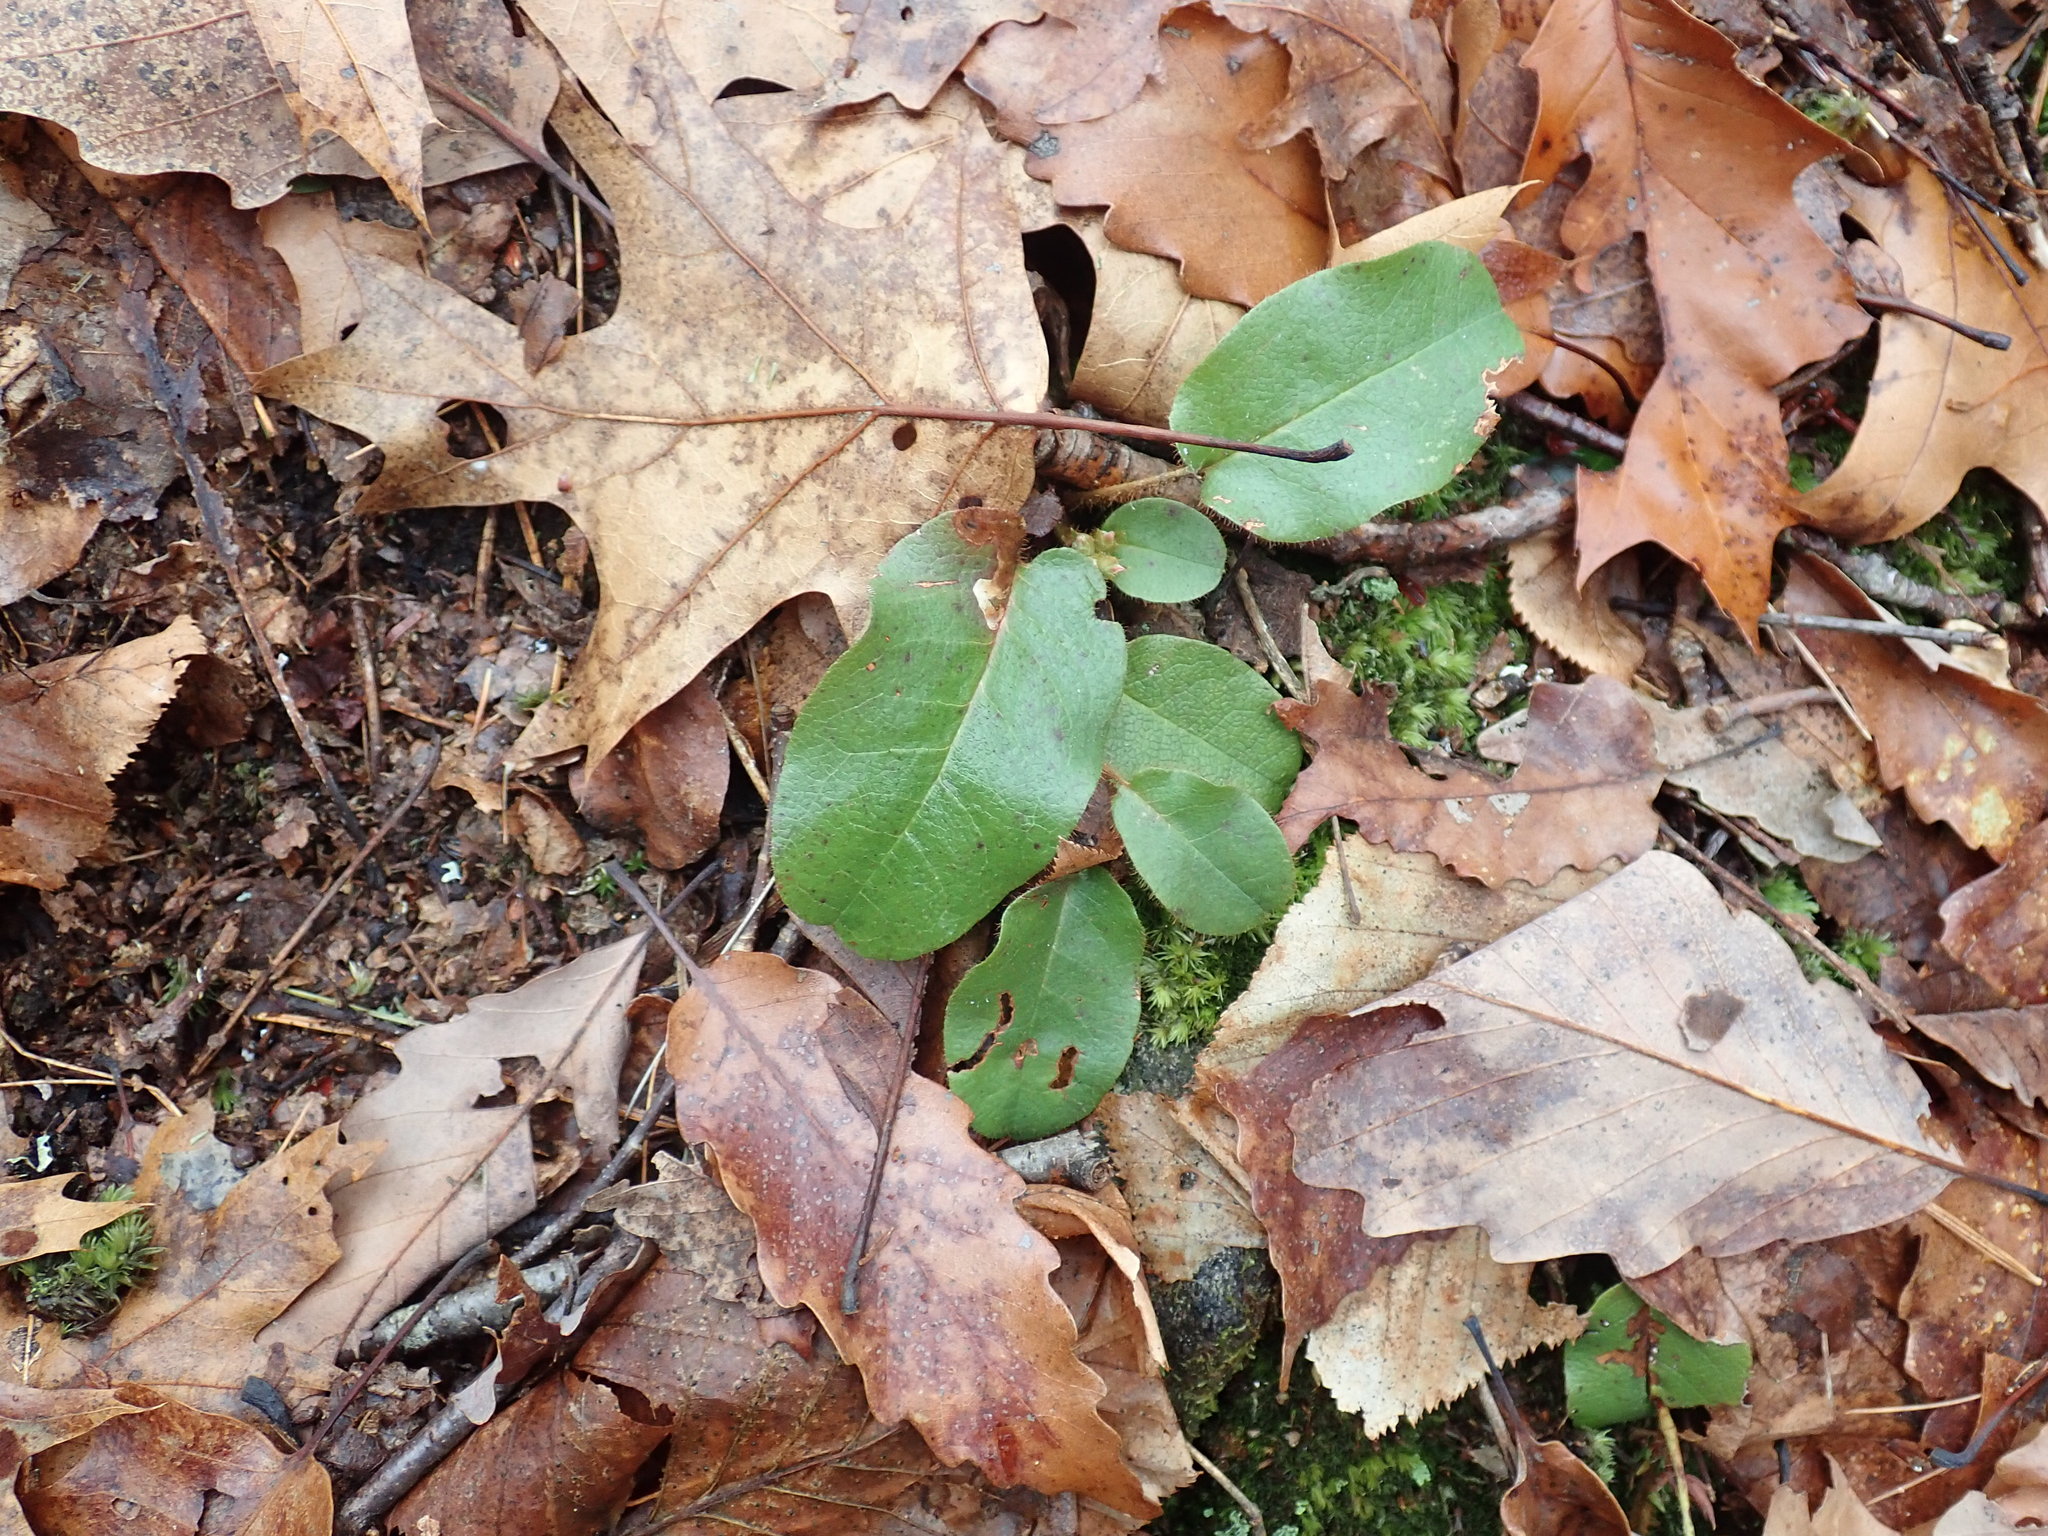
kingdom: Plantae
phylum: Tracheophyta
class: Magnoliopsida
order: Ericales
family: Ericaceae
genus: Epigaea
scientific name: Epigaea repens
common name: Gravelroot
